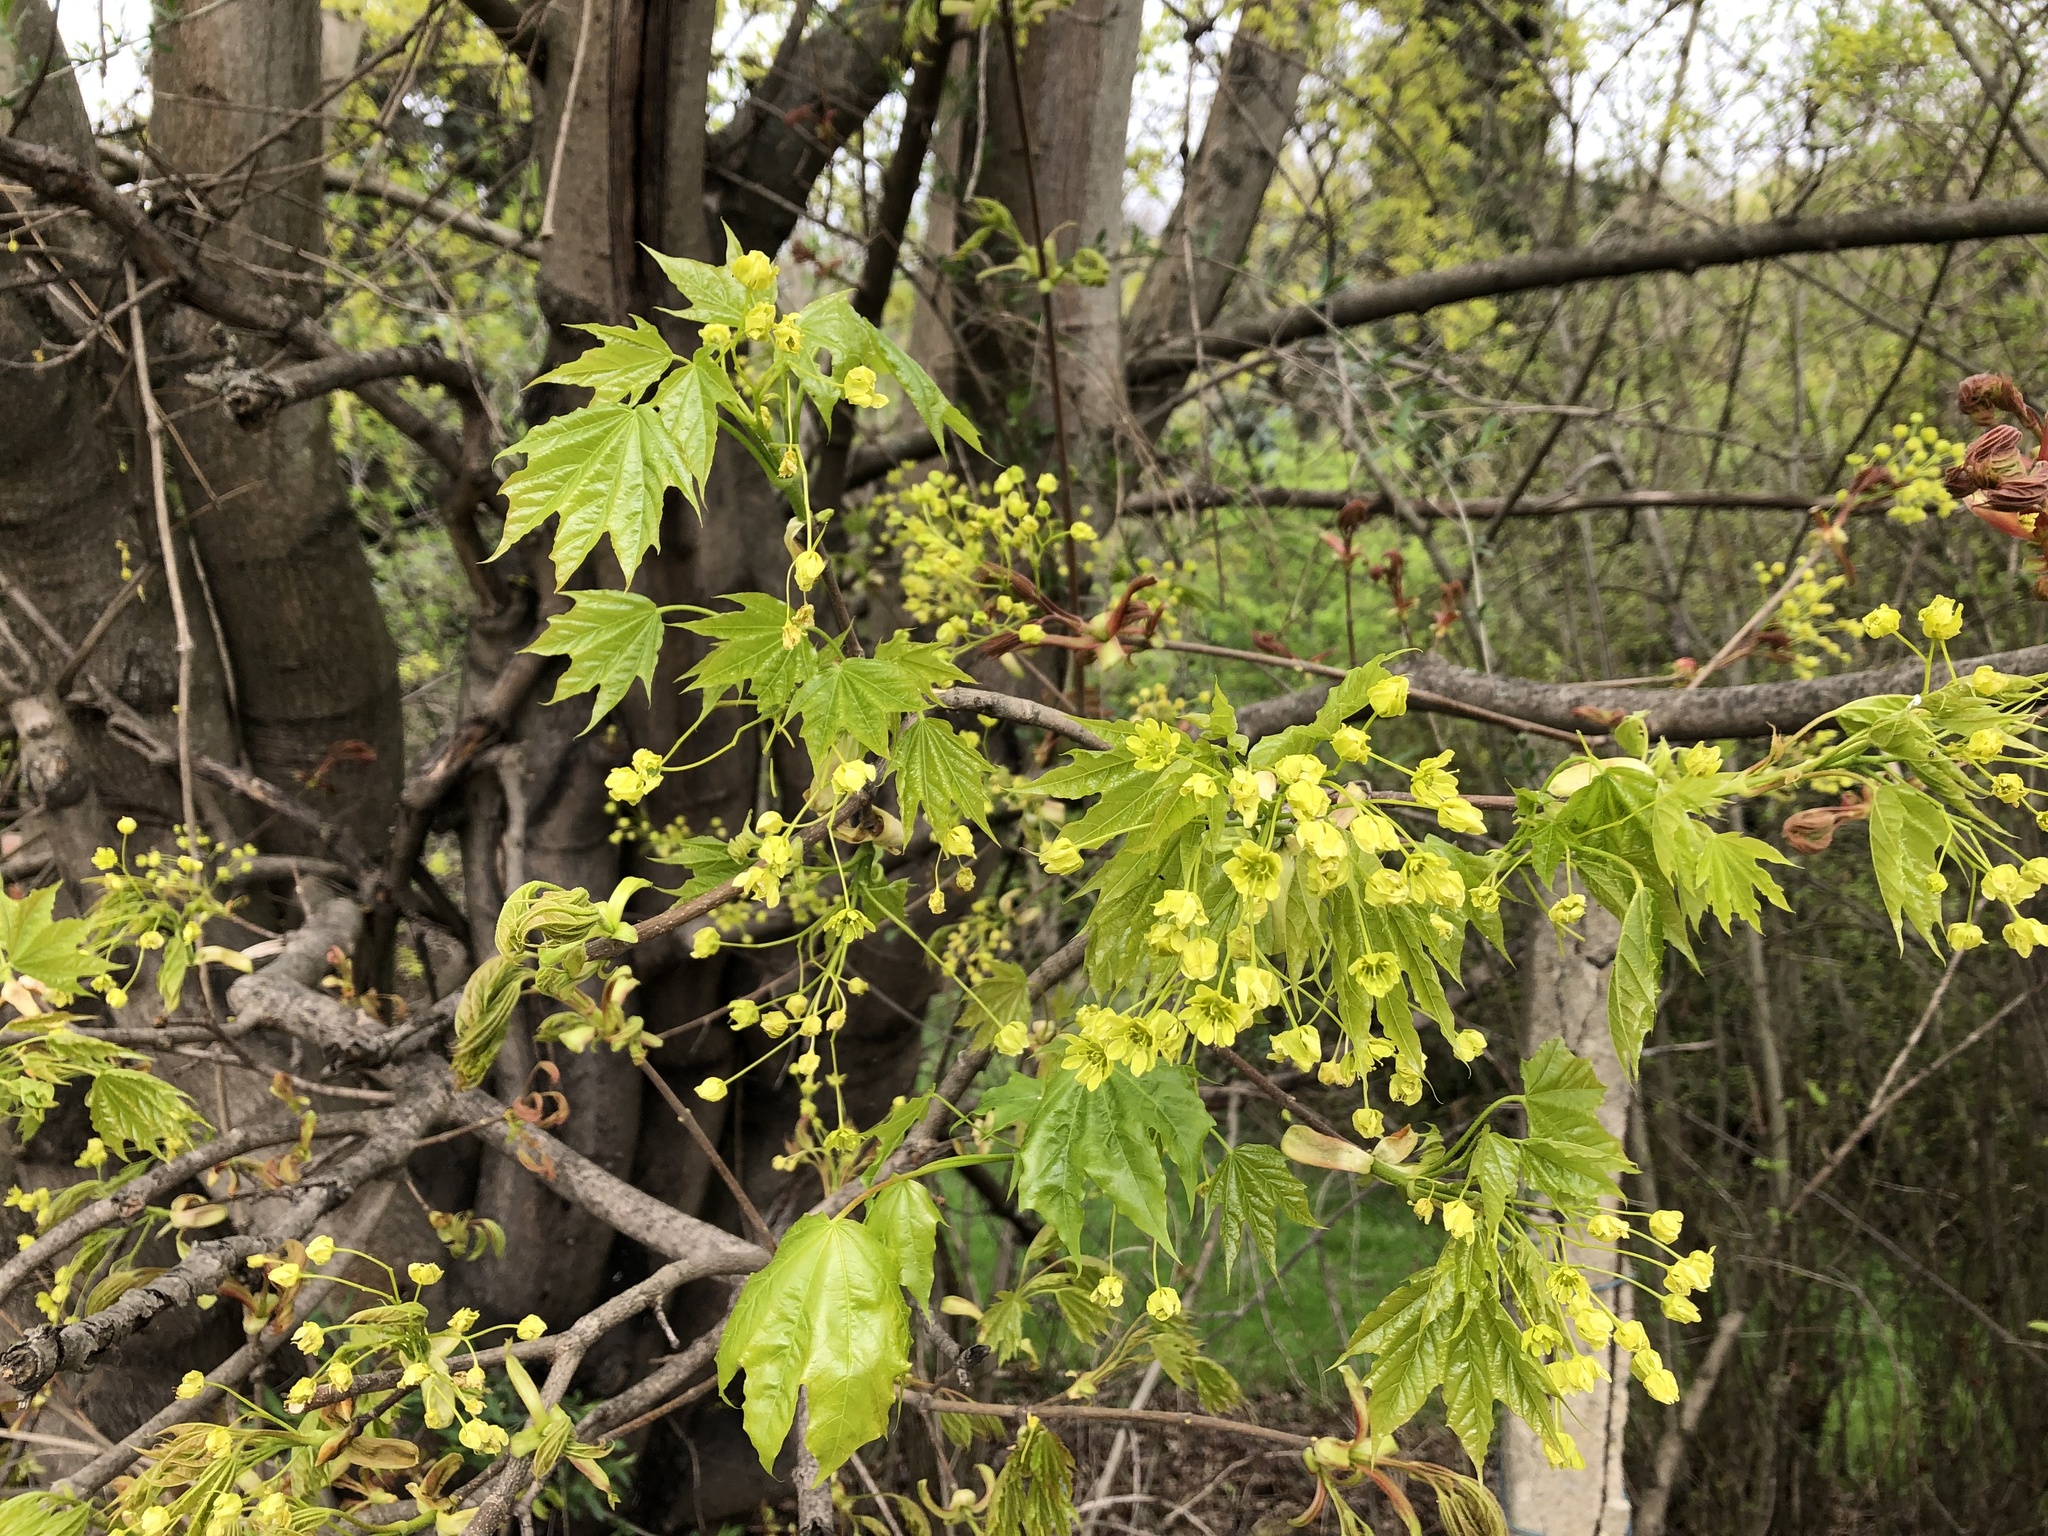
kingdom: Plantae
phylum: Tracheophyta
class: Magnoliopsida
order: Sapindales
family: Sapindaceae
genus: Acer
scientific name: Acer platanoides
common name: Norway maple
